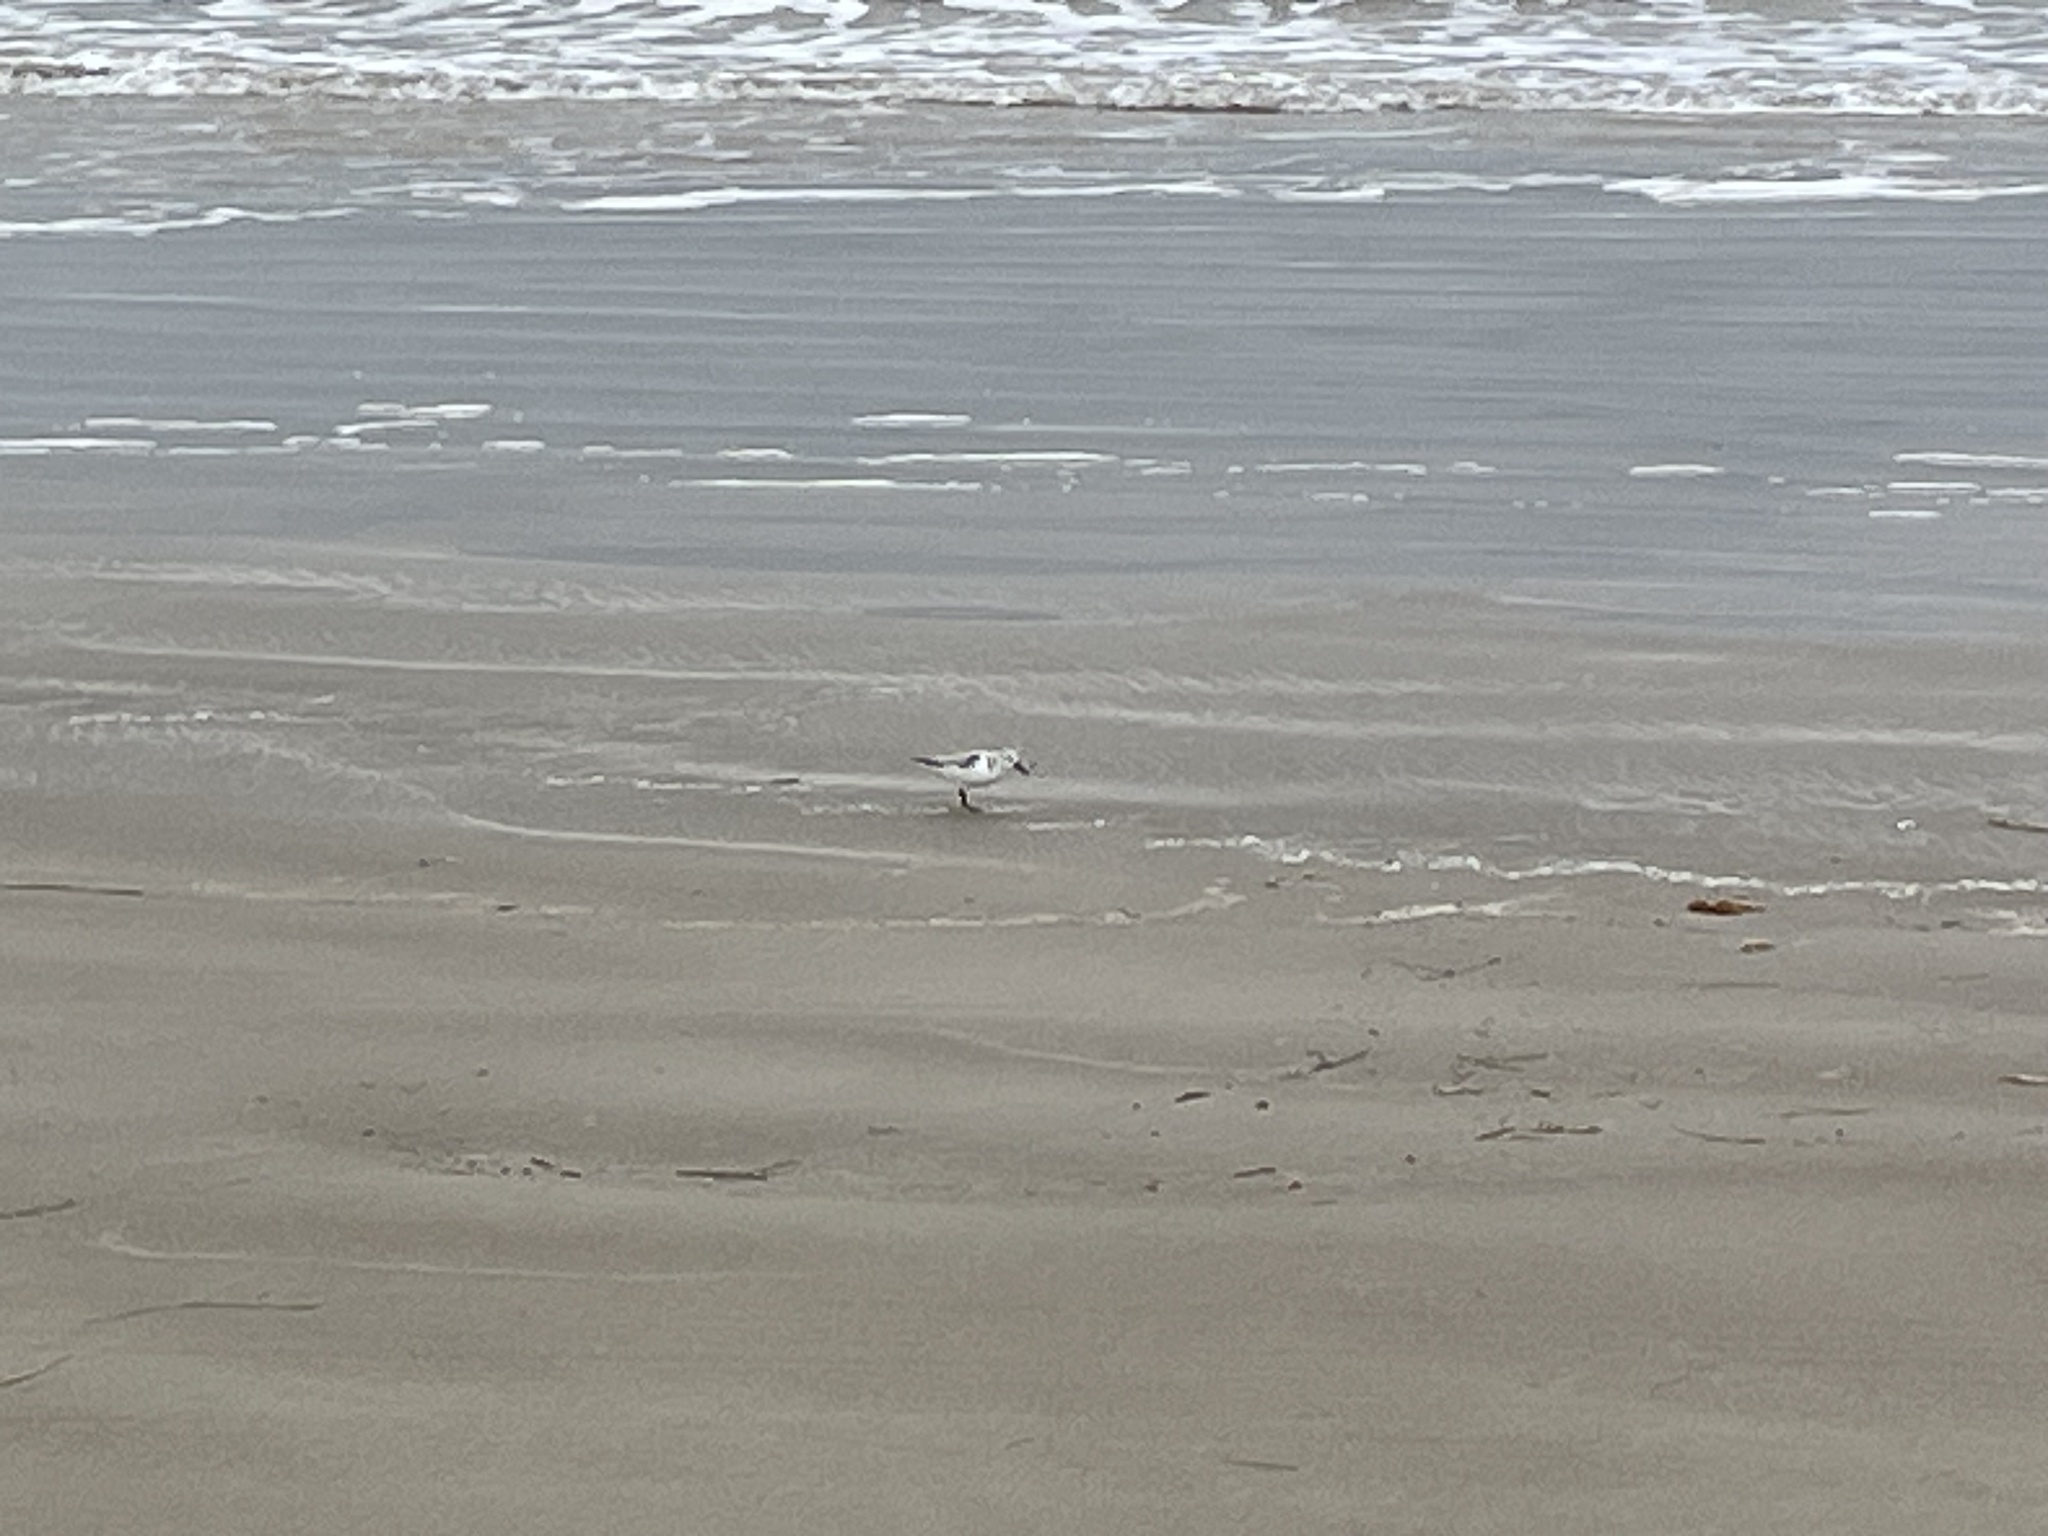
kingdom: Animalia
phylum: Chordata
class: Aves
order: Charadriiformes
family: Scolopacidae
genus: Calidris
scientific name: Calidris alba
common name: Sanderling
